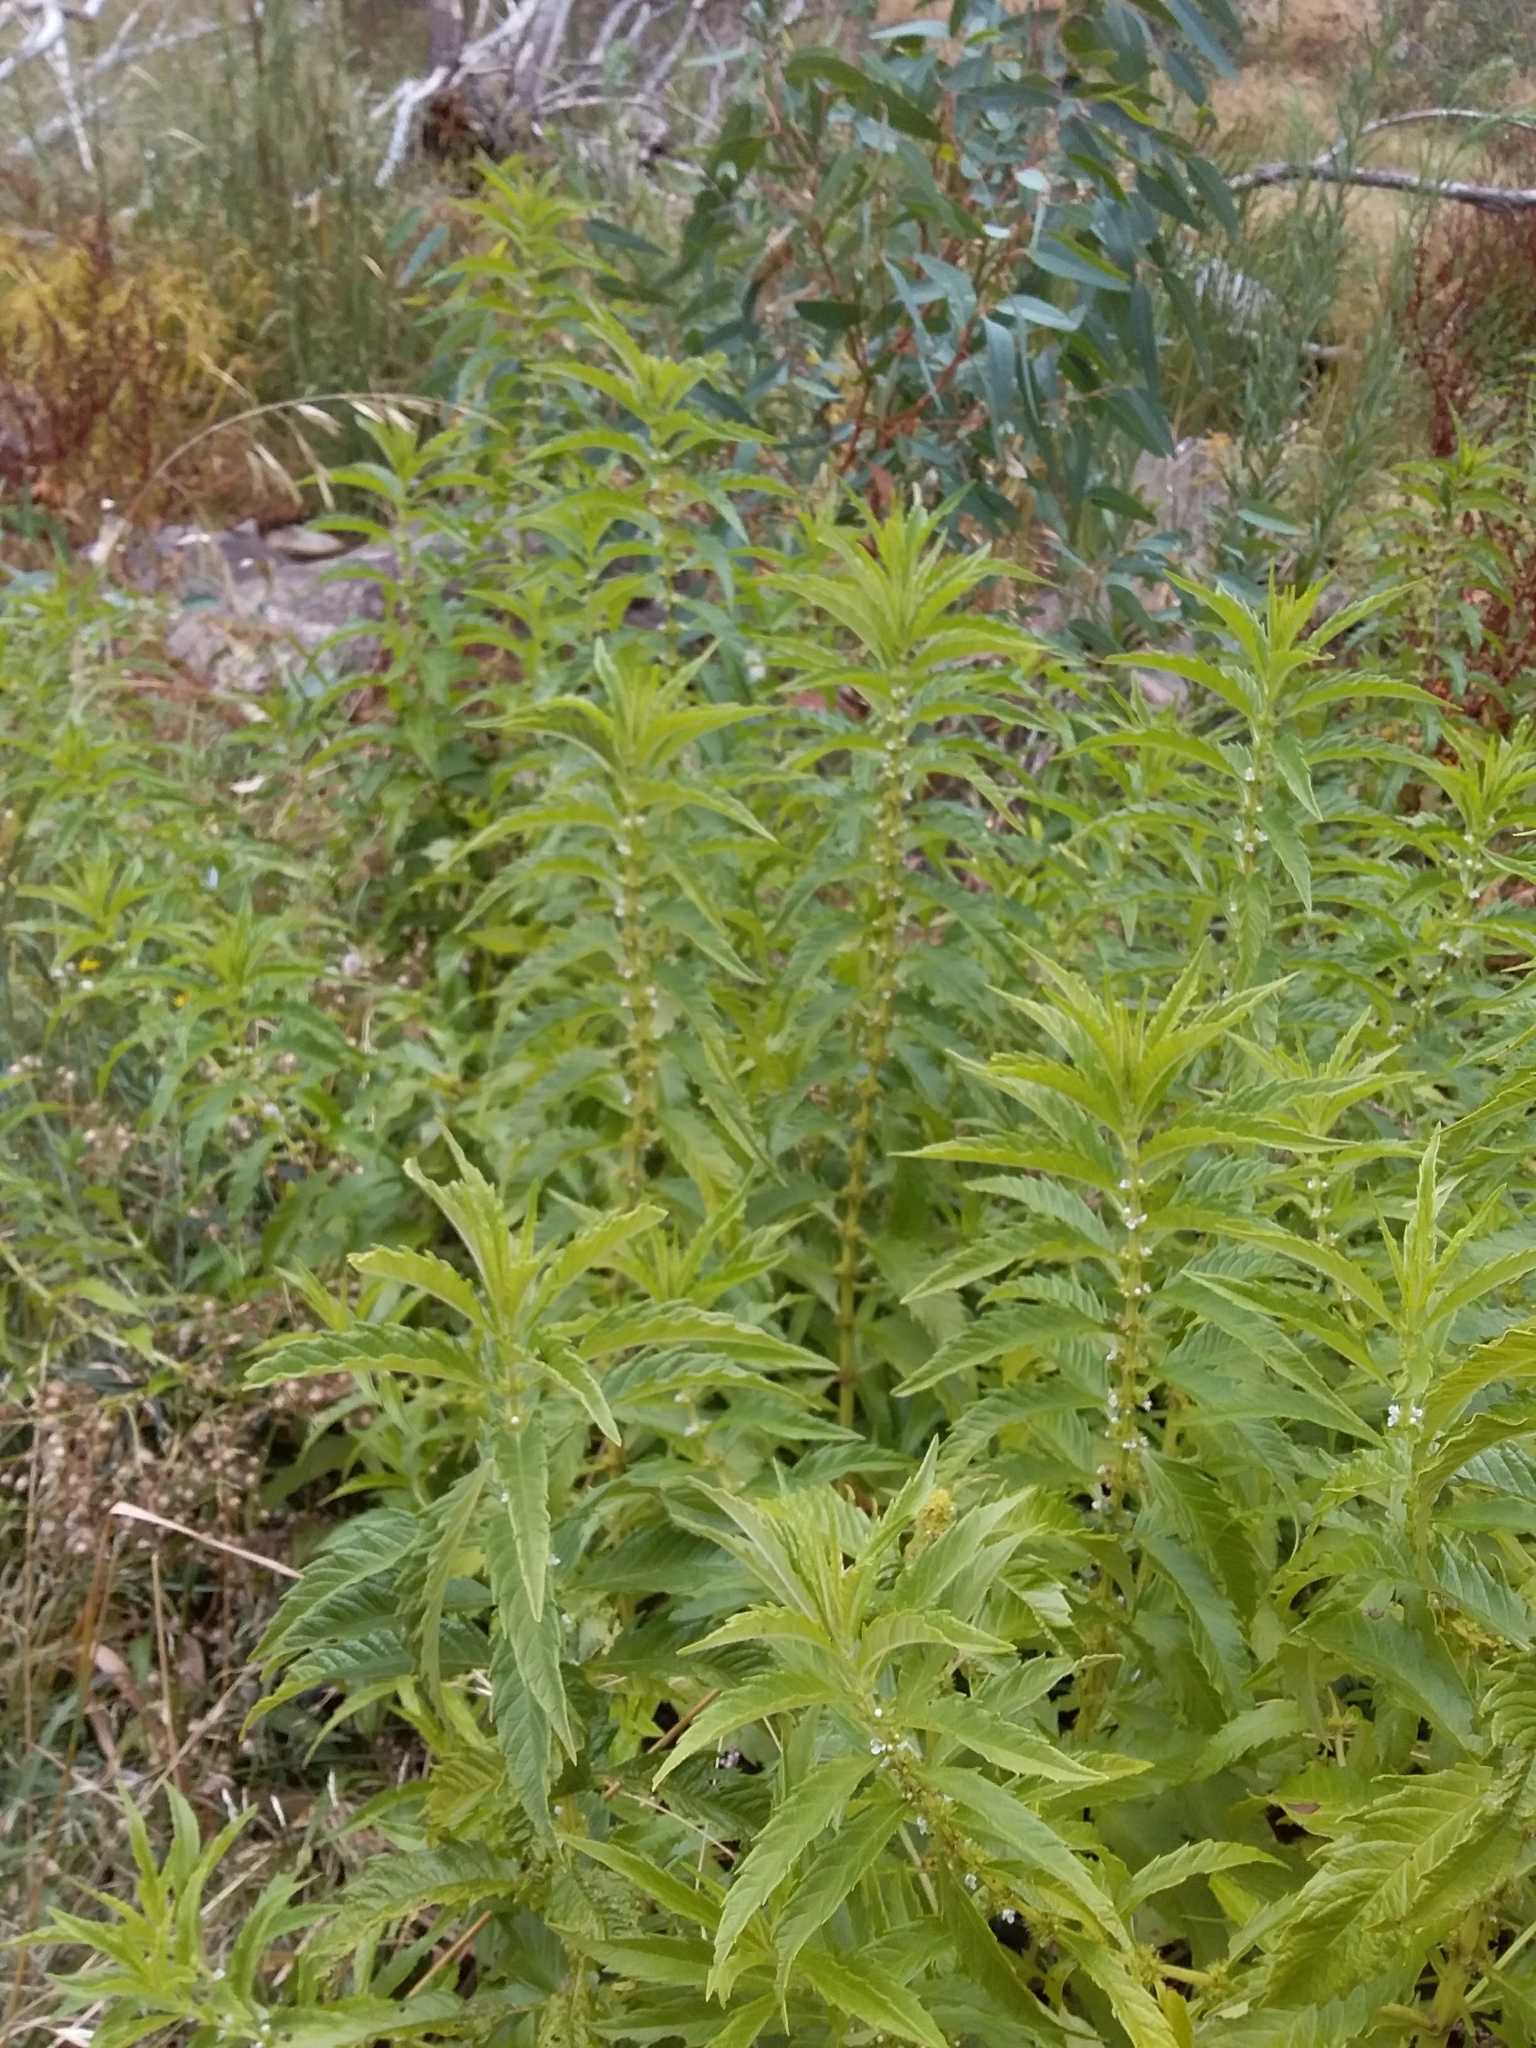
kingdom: Plantae
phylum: Tracheophyta
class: Magnoliopsida
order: Lamiales
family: Lamiaceae
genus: Lycopus
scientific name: Lycopus australis
